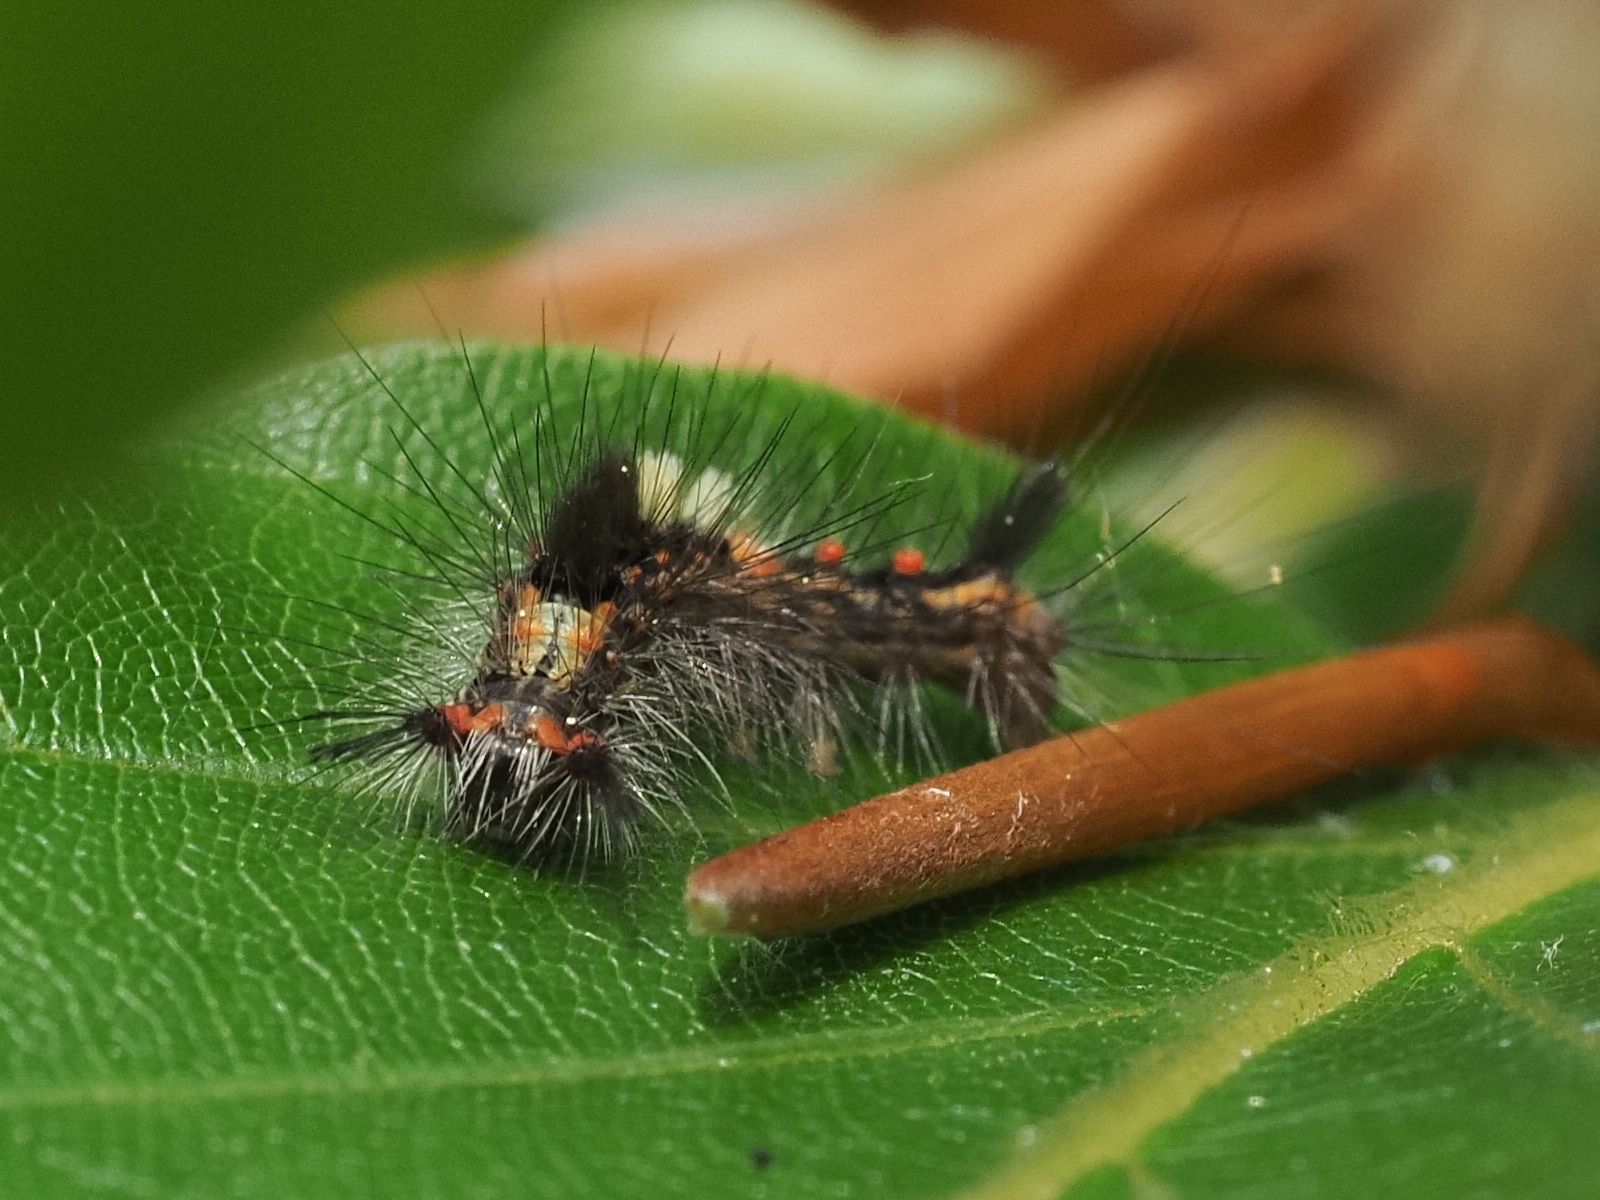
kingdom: Animalia
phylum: Arthropoda
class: Insecta
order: Lepidoptera
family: Erebidae
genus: Orgyia
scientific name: Orgyia antiqua
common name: Vapourer
